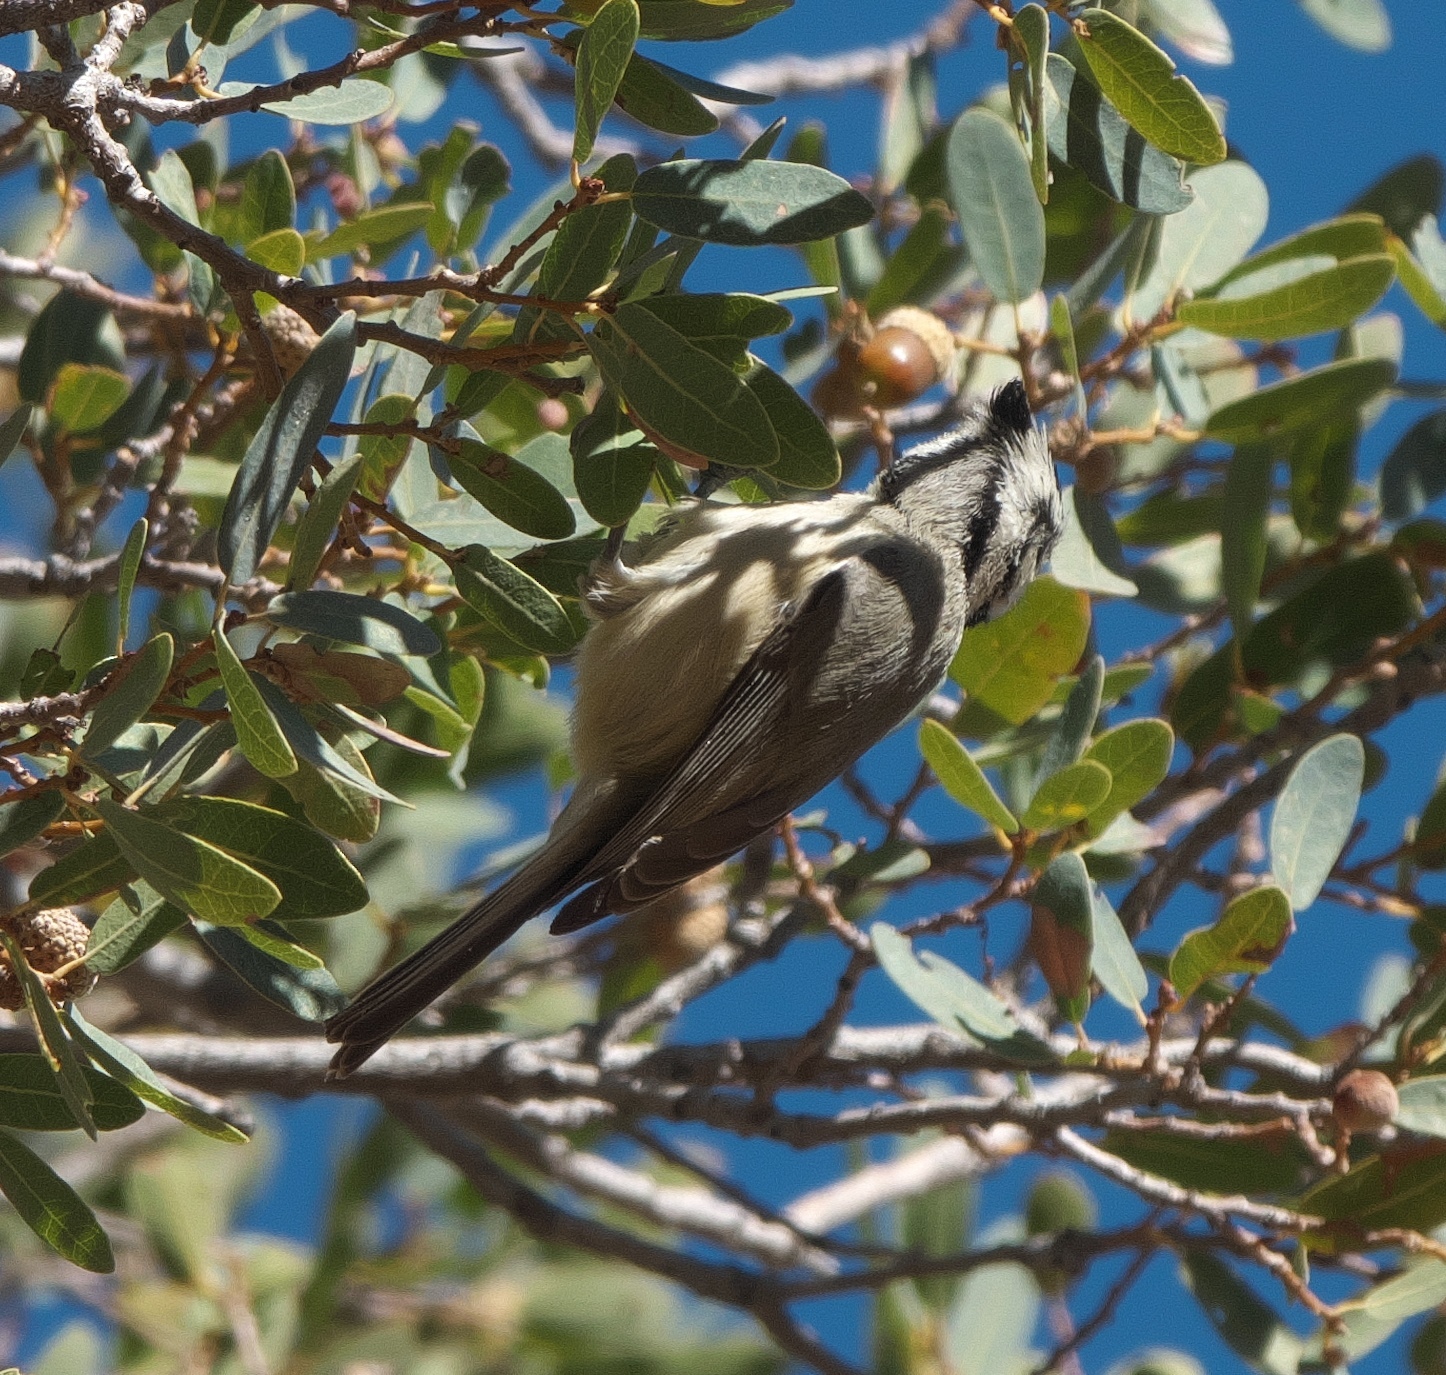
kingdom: Animalia
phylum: Chordata
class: Aves
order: Passeriformes
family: Paridae
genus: Baeolophus
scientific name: Baeolophus wollweberi
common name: Bridled titmouse
